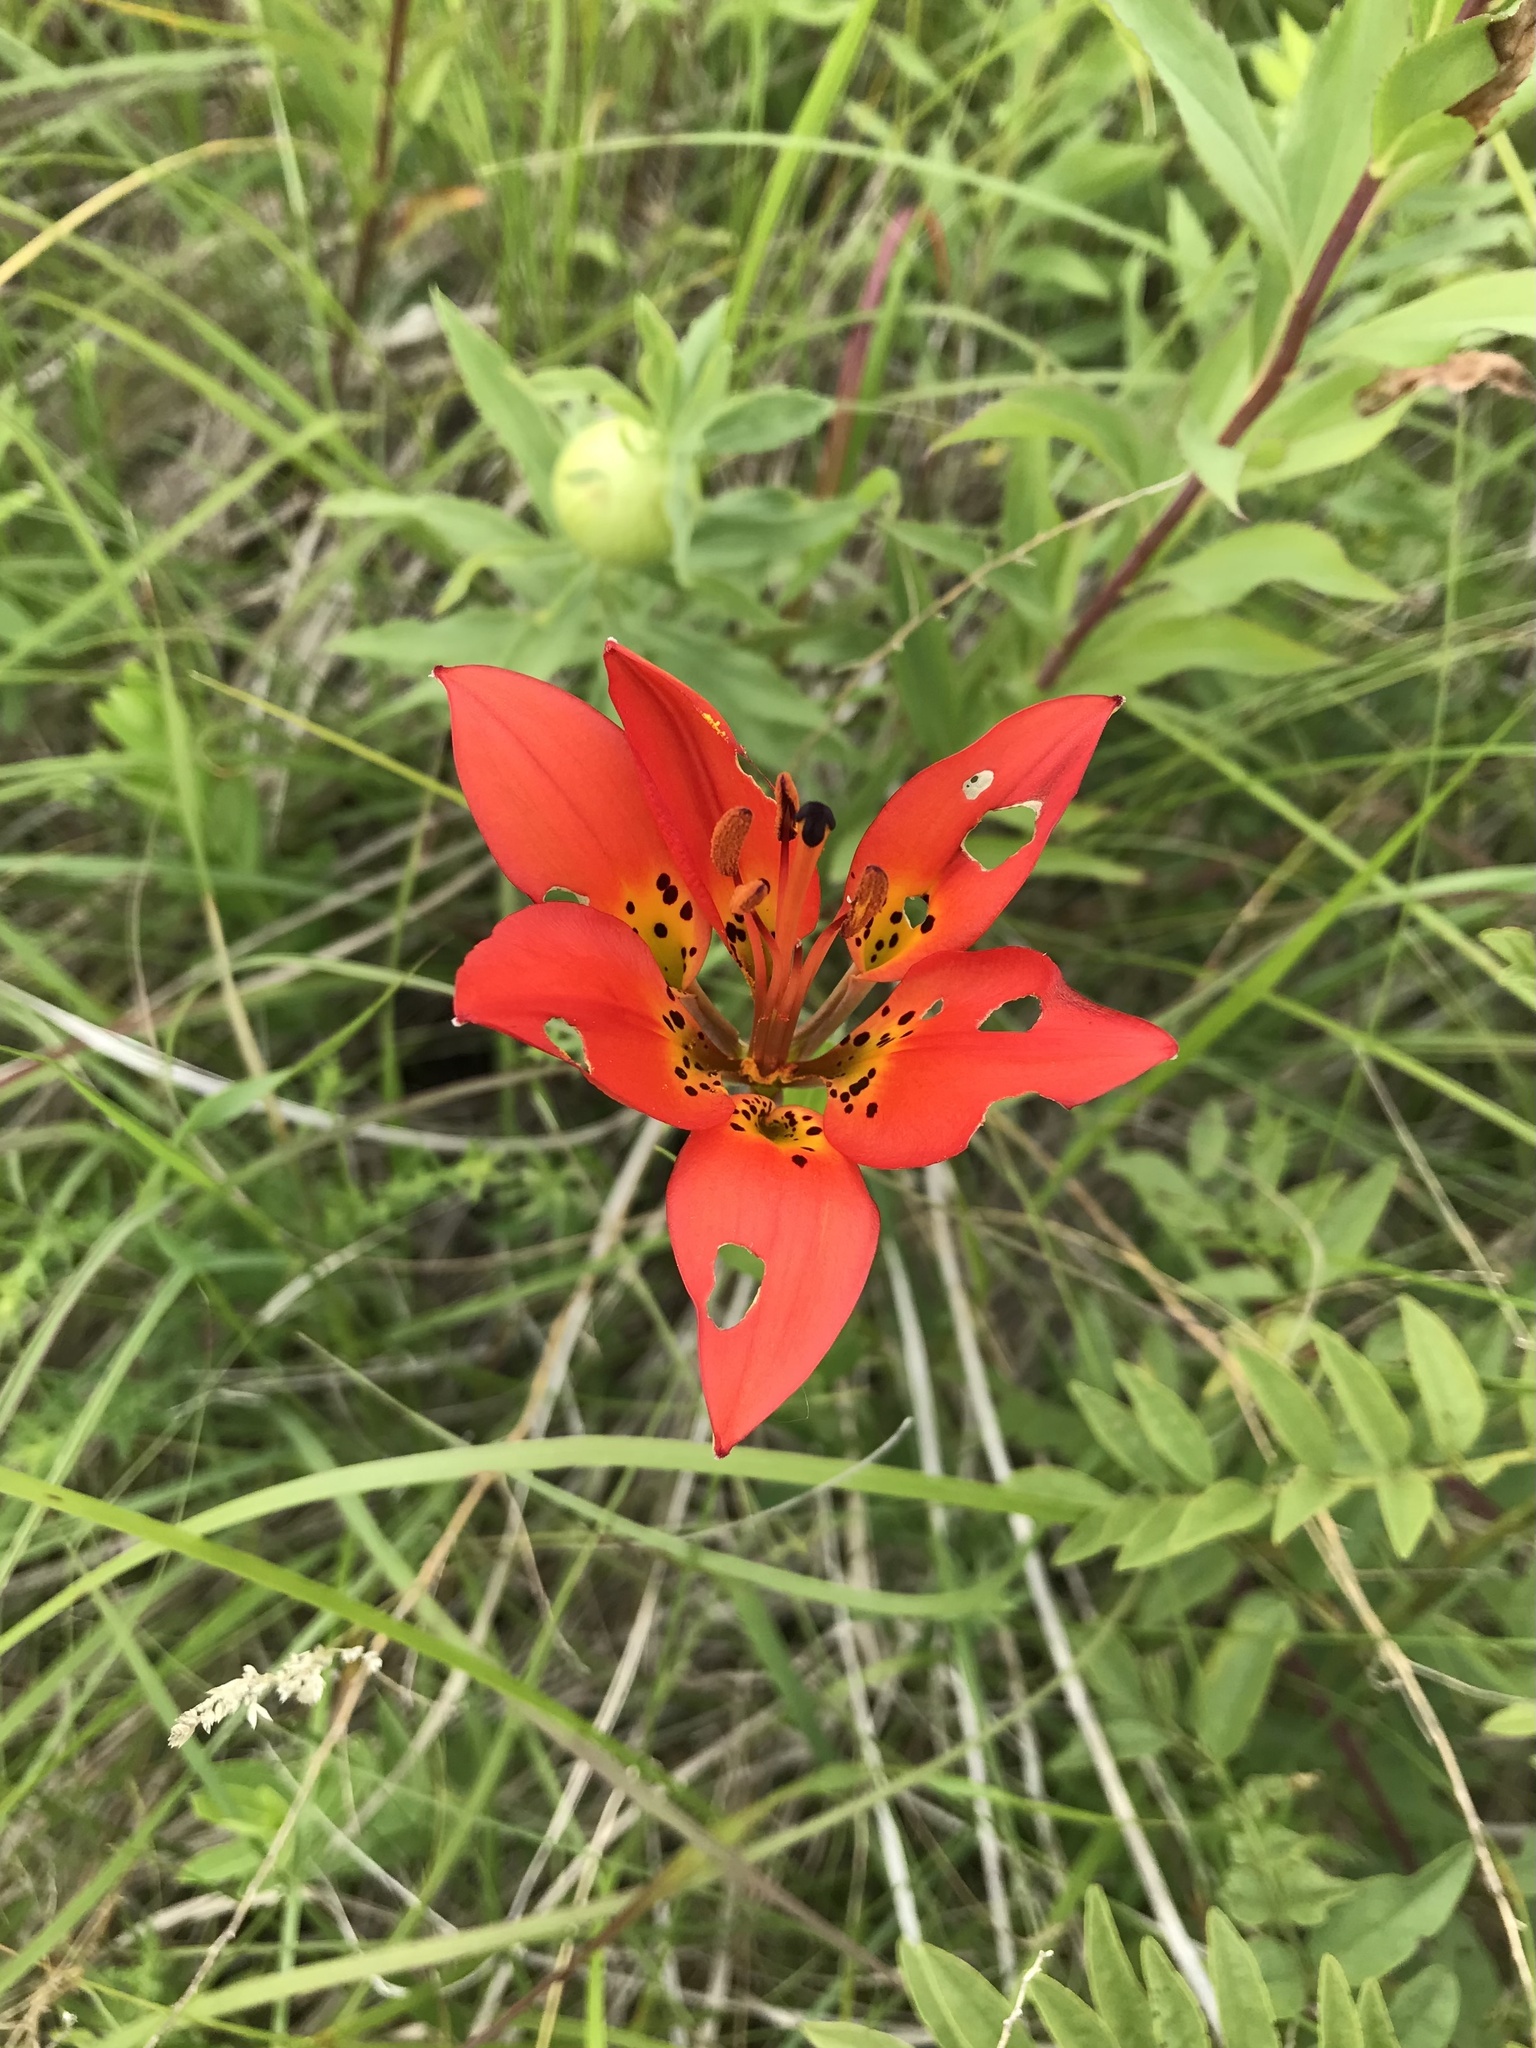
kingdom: Plantae
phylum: Tracheophyta
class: Liliopsida
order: Liliales
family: Liliaceae
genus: Lilium
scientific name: Lilium philadelphicum
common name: Red lily
